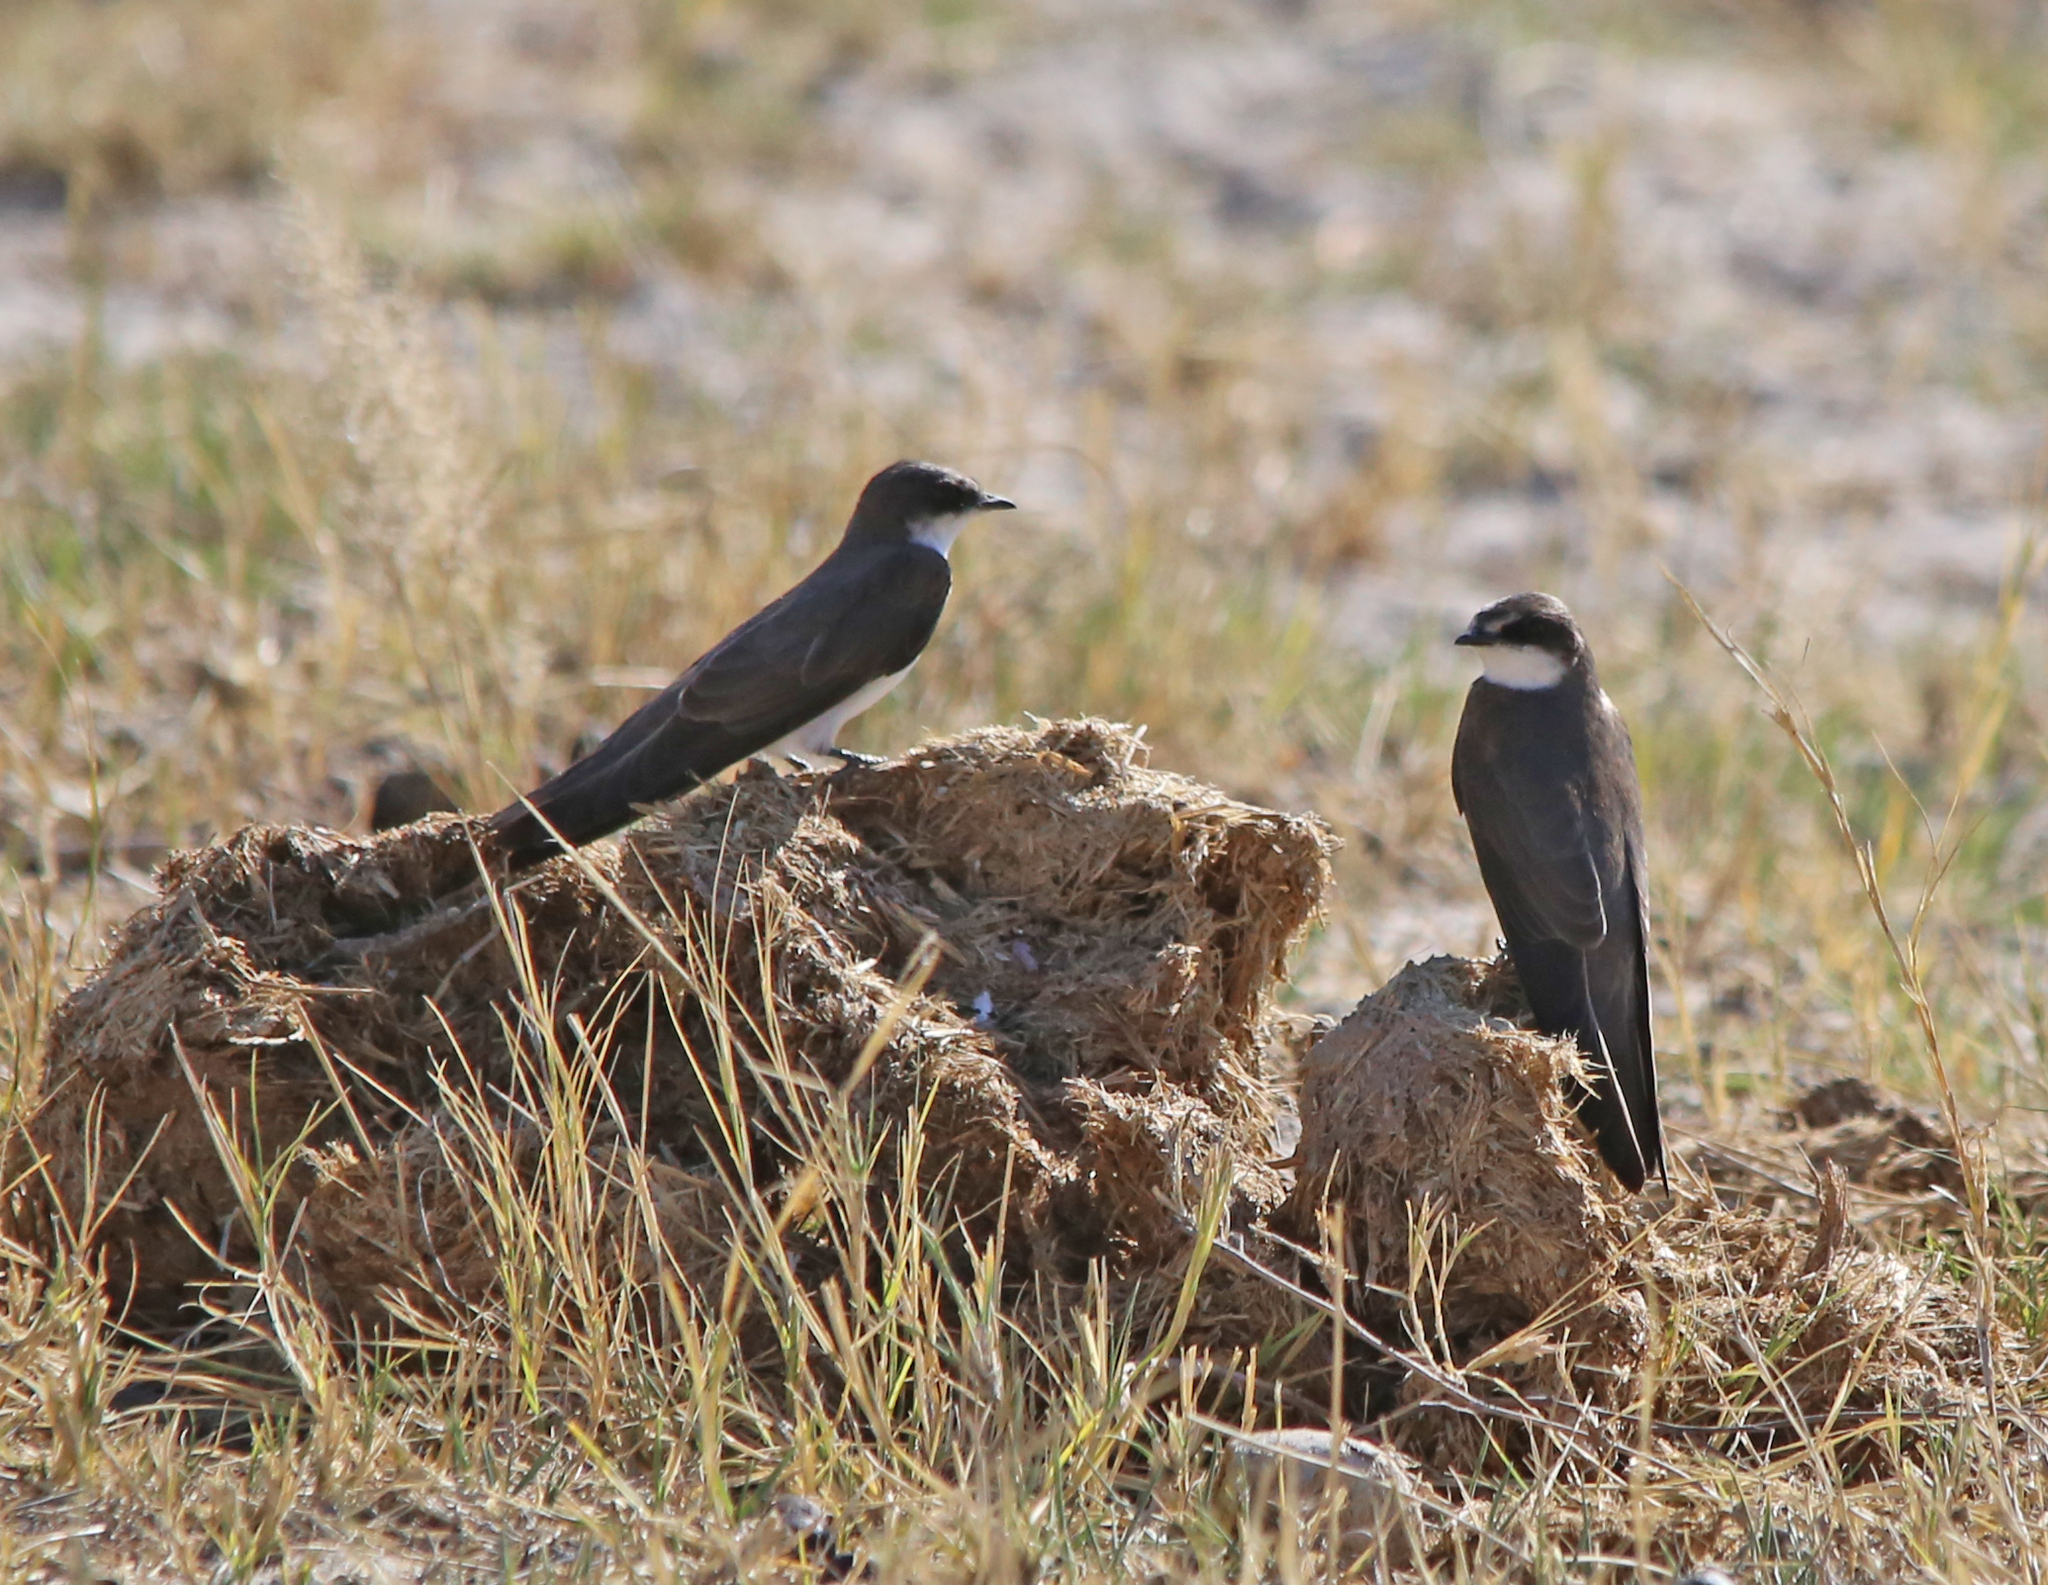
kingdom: Animalia
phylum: Chordata
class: Aves
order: Passeriformes
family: Hirundinidae
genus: Riparia
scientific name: Riparia cincta
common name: Banded martin
